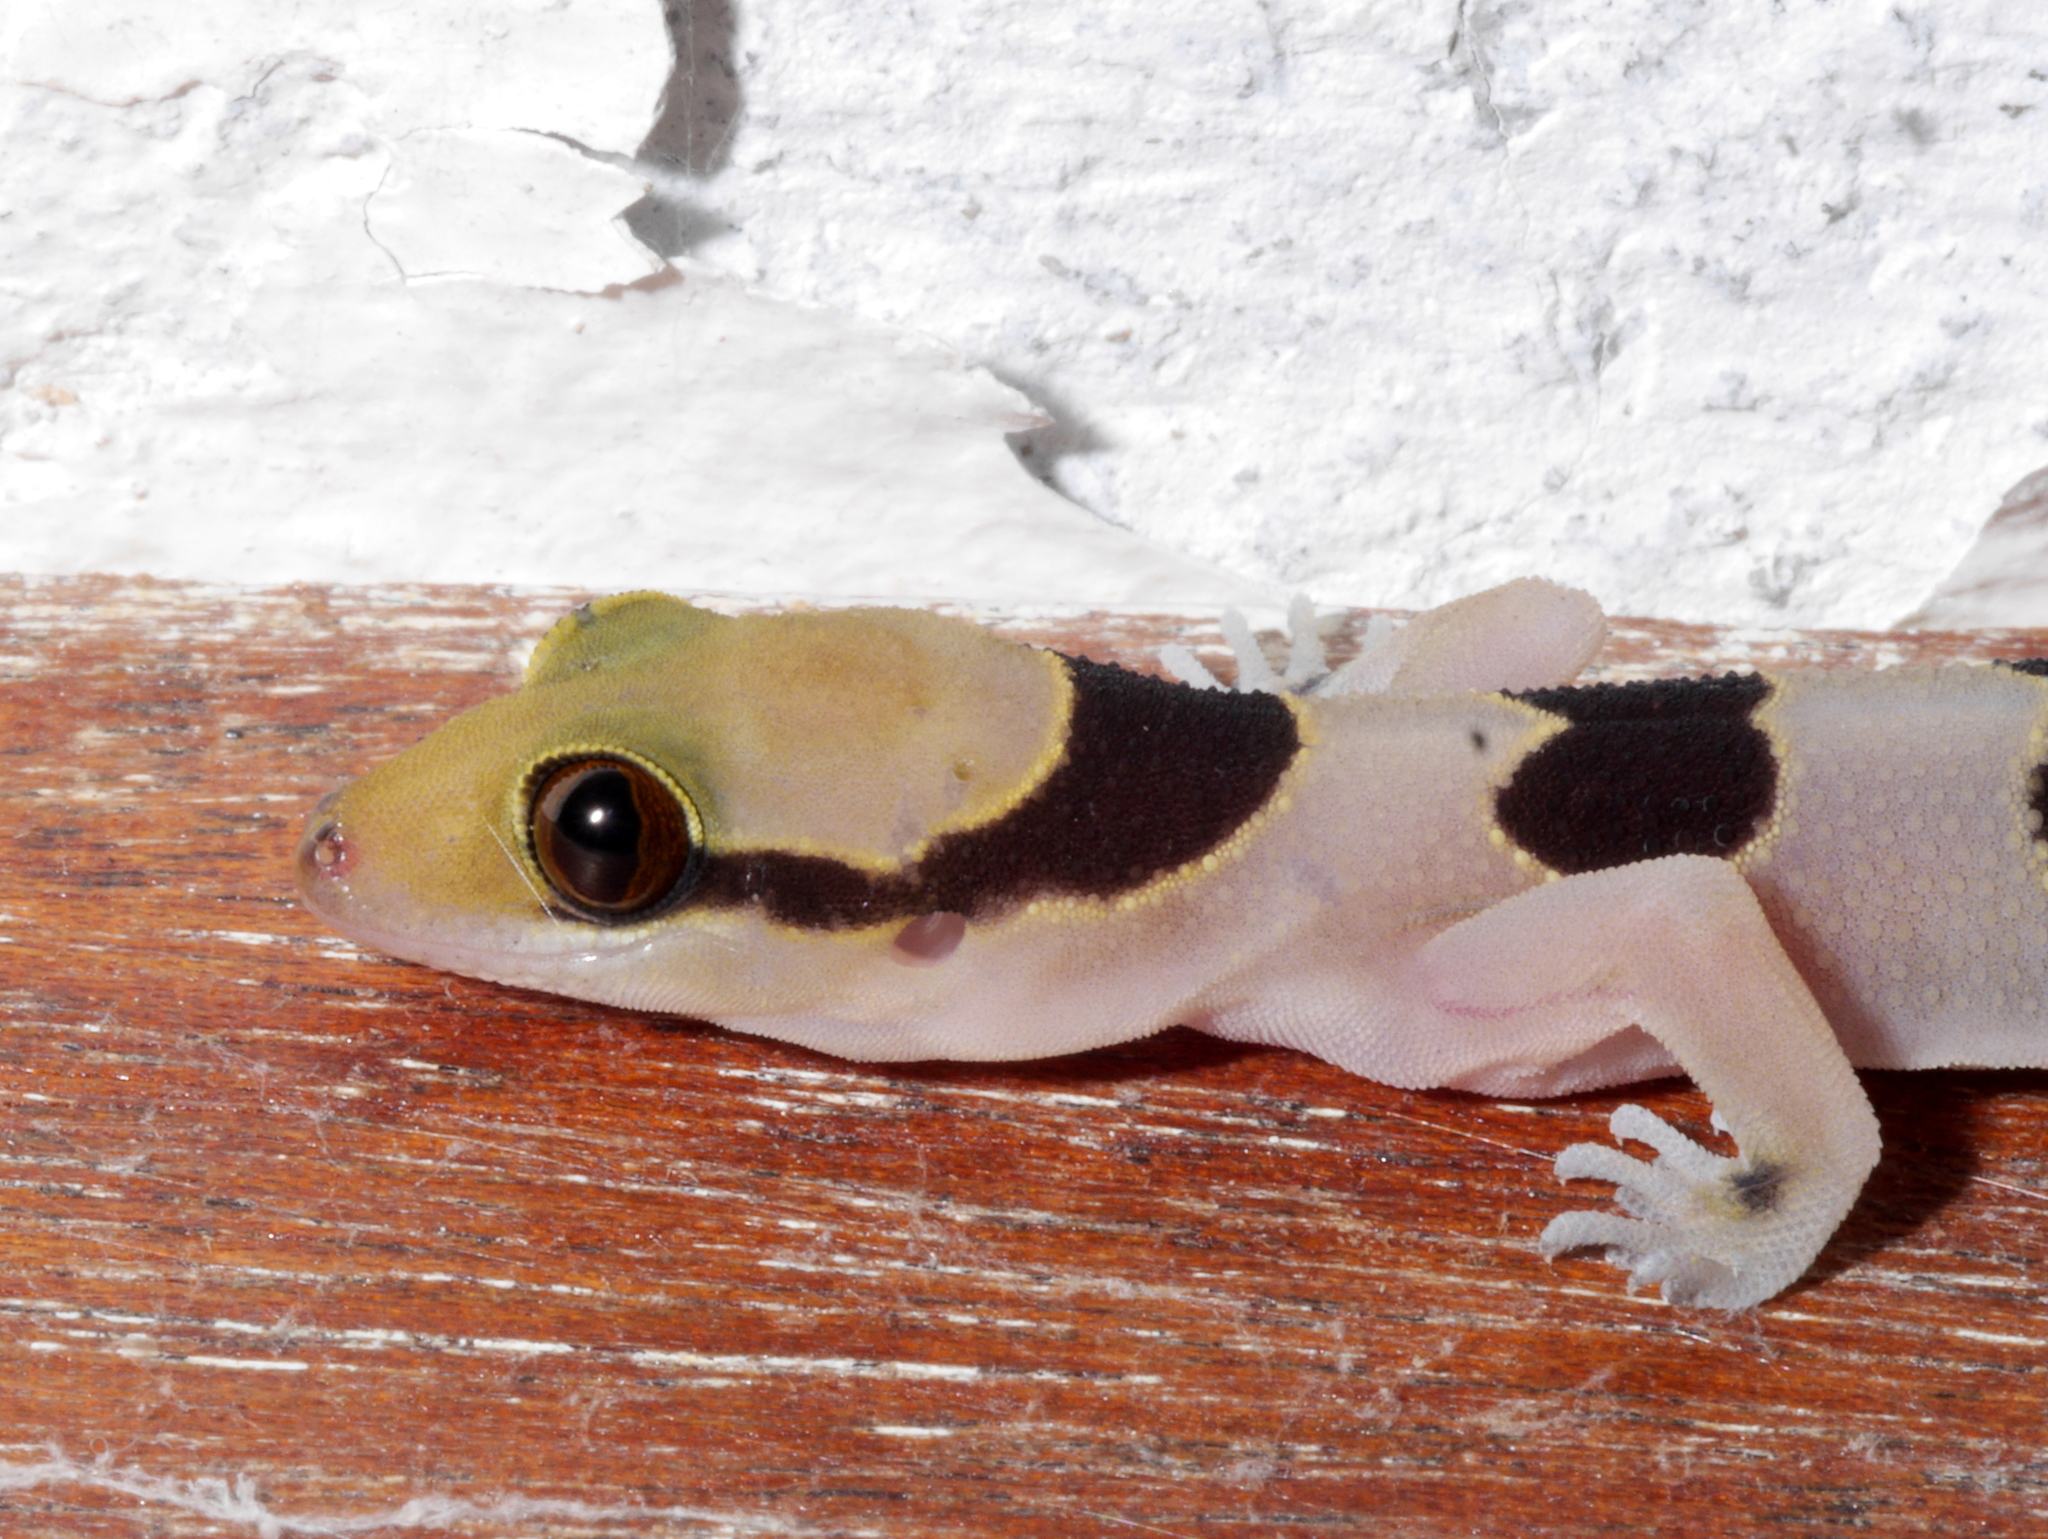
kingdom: Animalia
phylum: Chordata
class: Squamata
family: Gekkonidae
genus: Hemidactylus
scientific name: Hemidactylus coalescens
